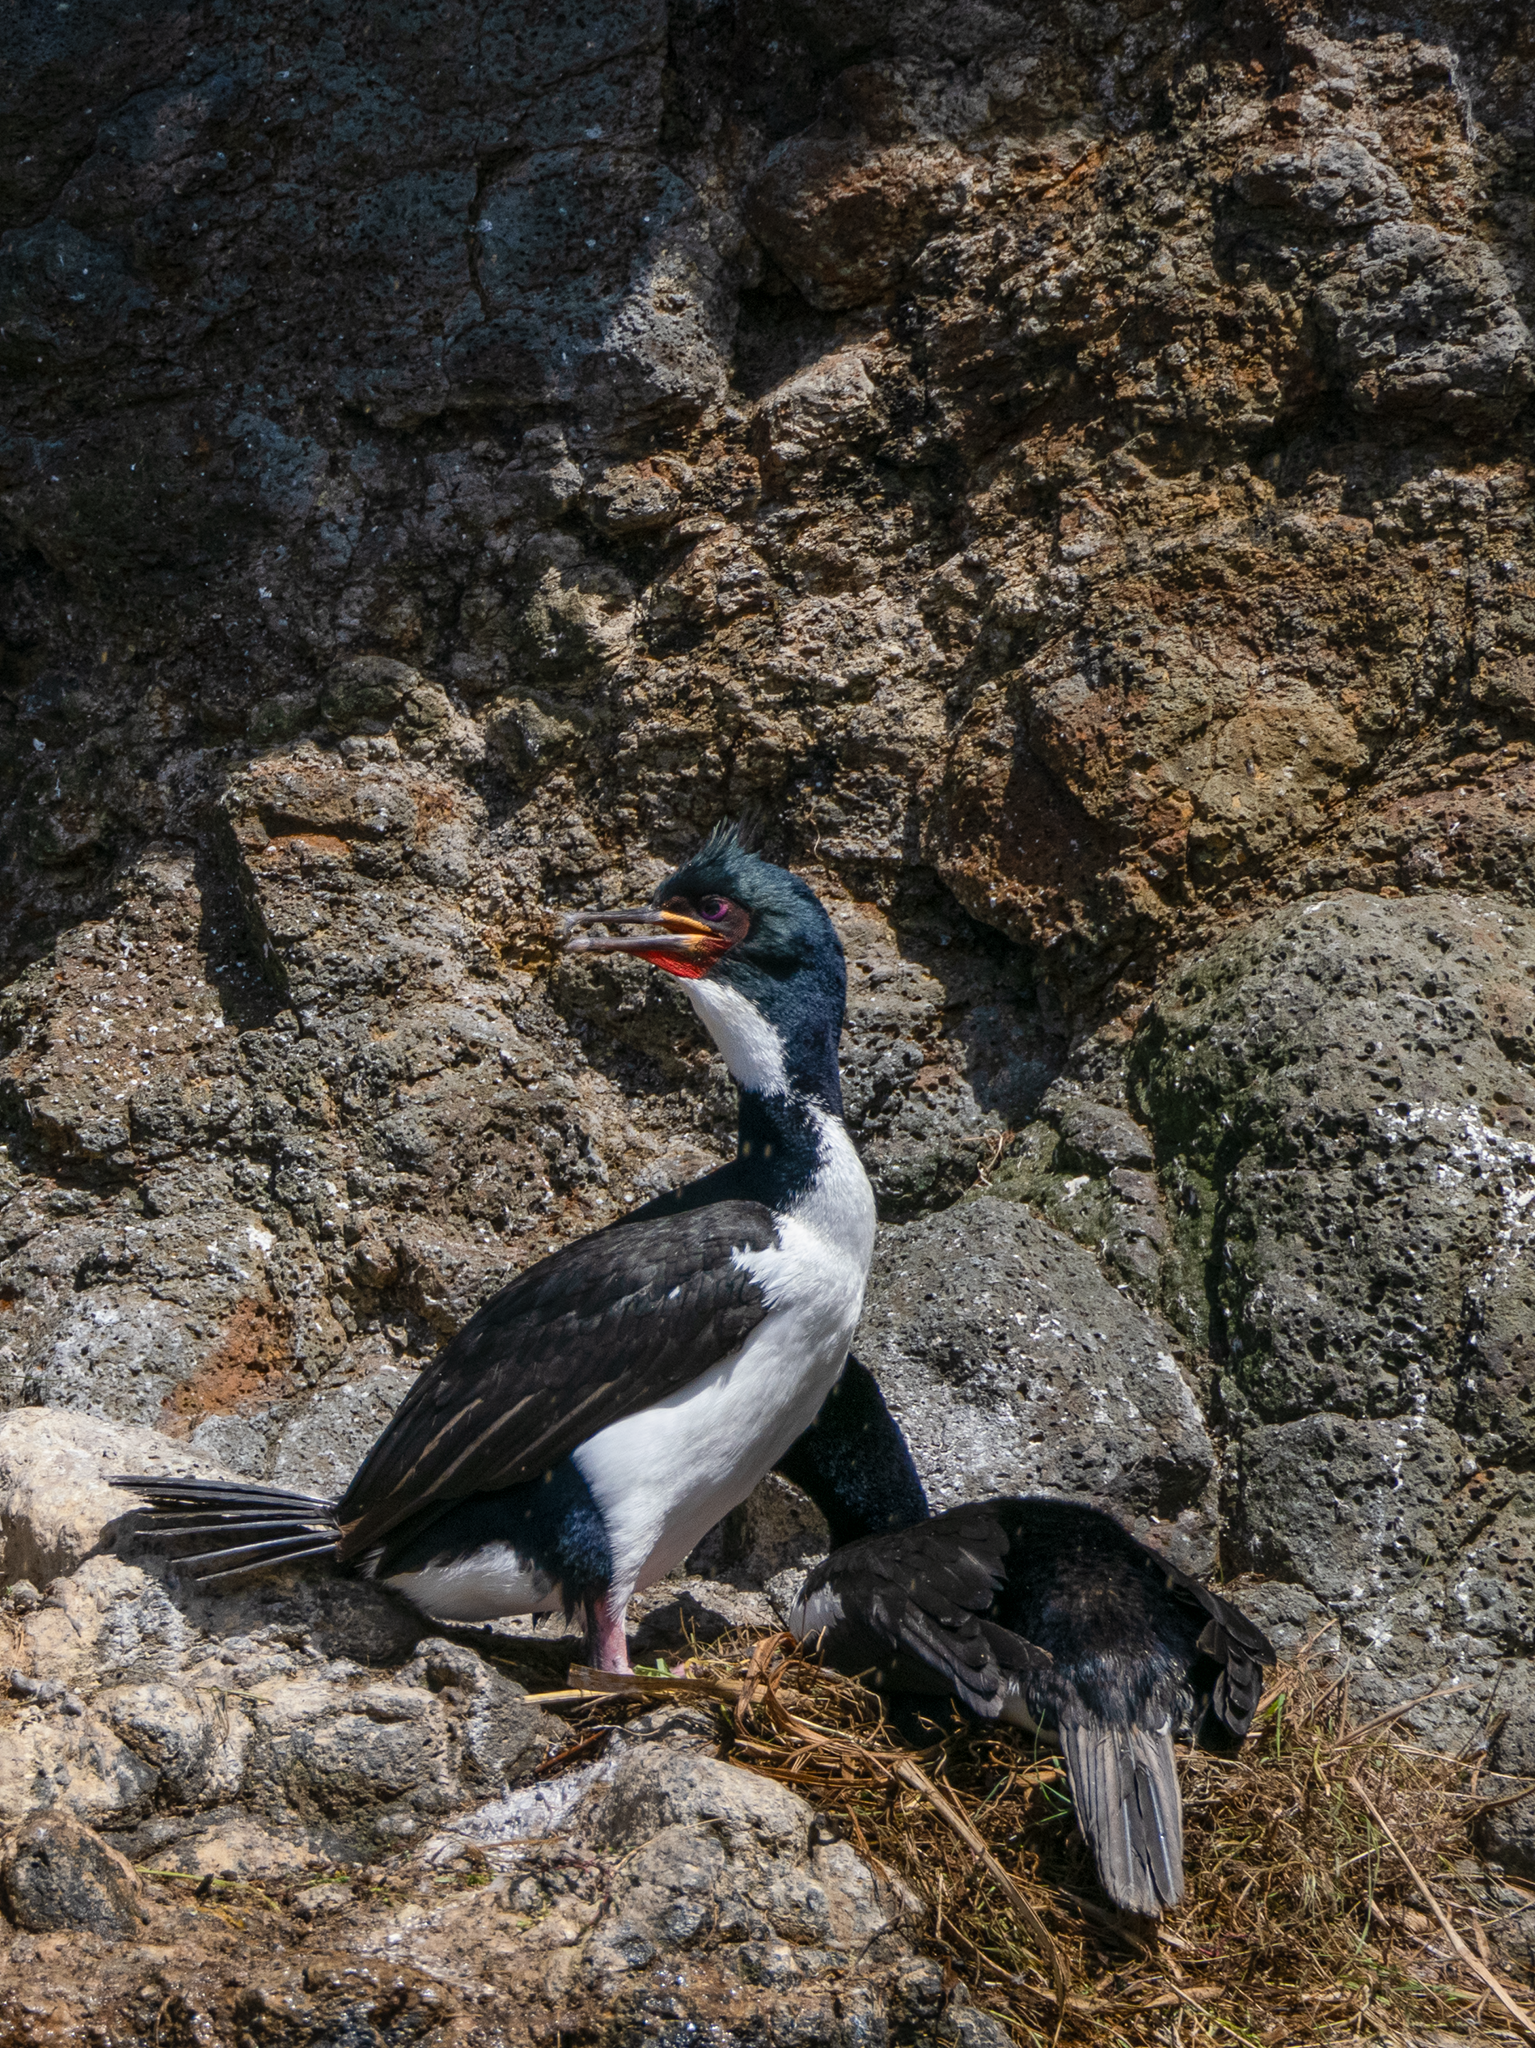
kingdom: Animalia
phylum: Chordata
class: Aves
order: Suliformes
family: Phalacrocoracidae
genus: Leucocarbo
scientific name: Leucocarbo colensoi
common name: Auckland shag
